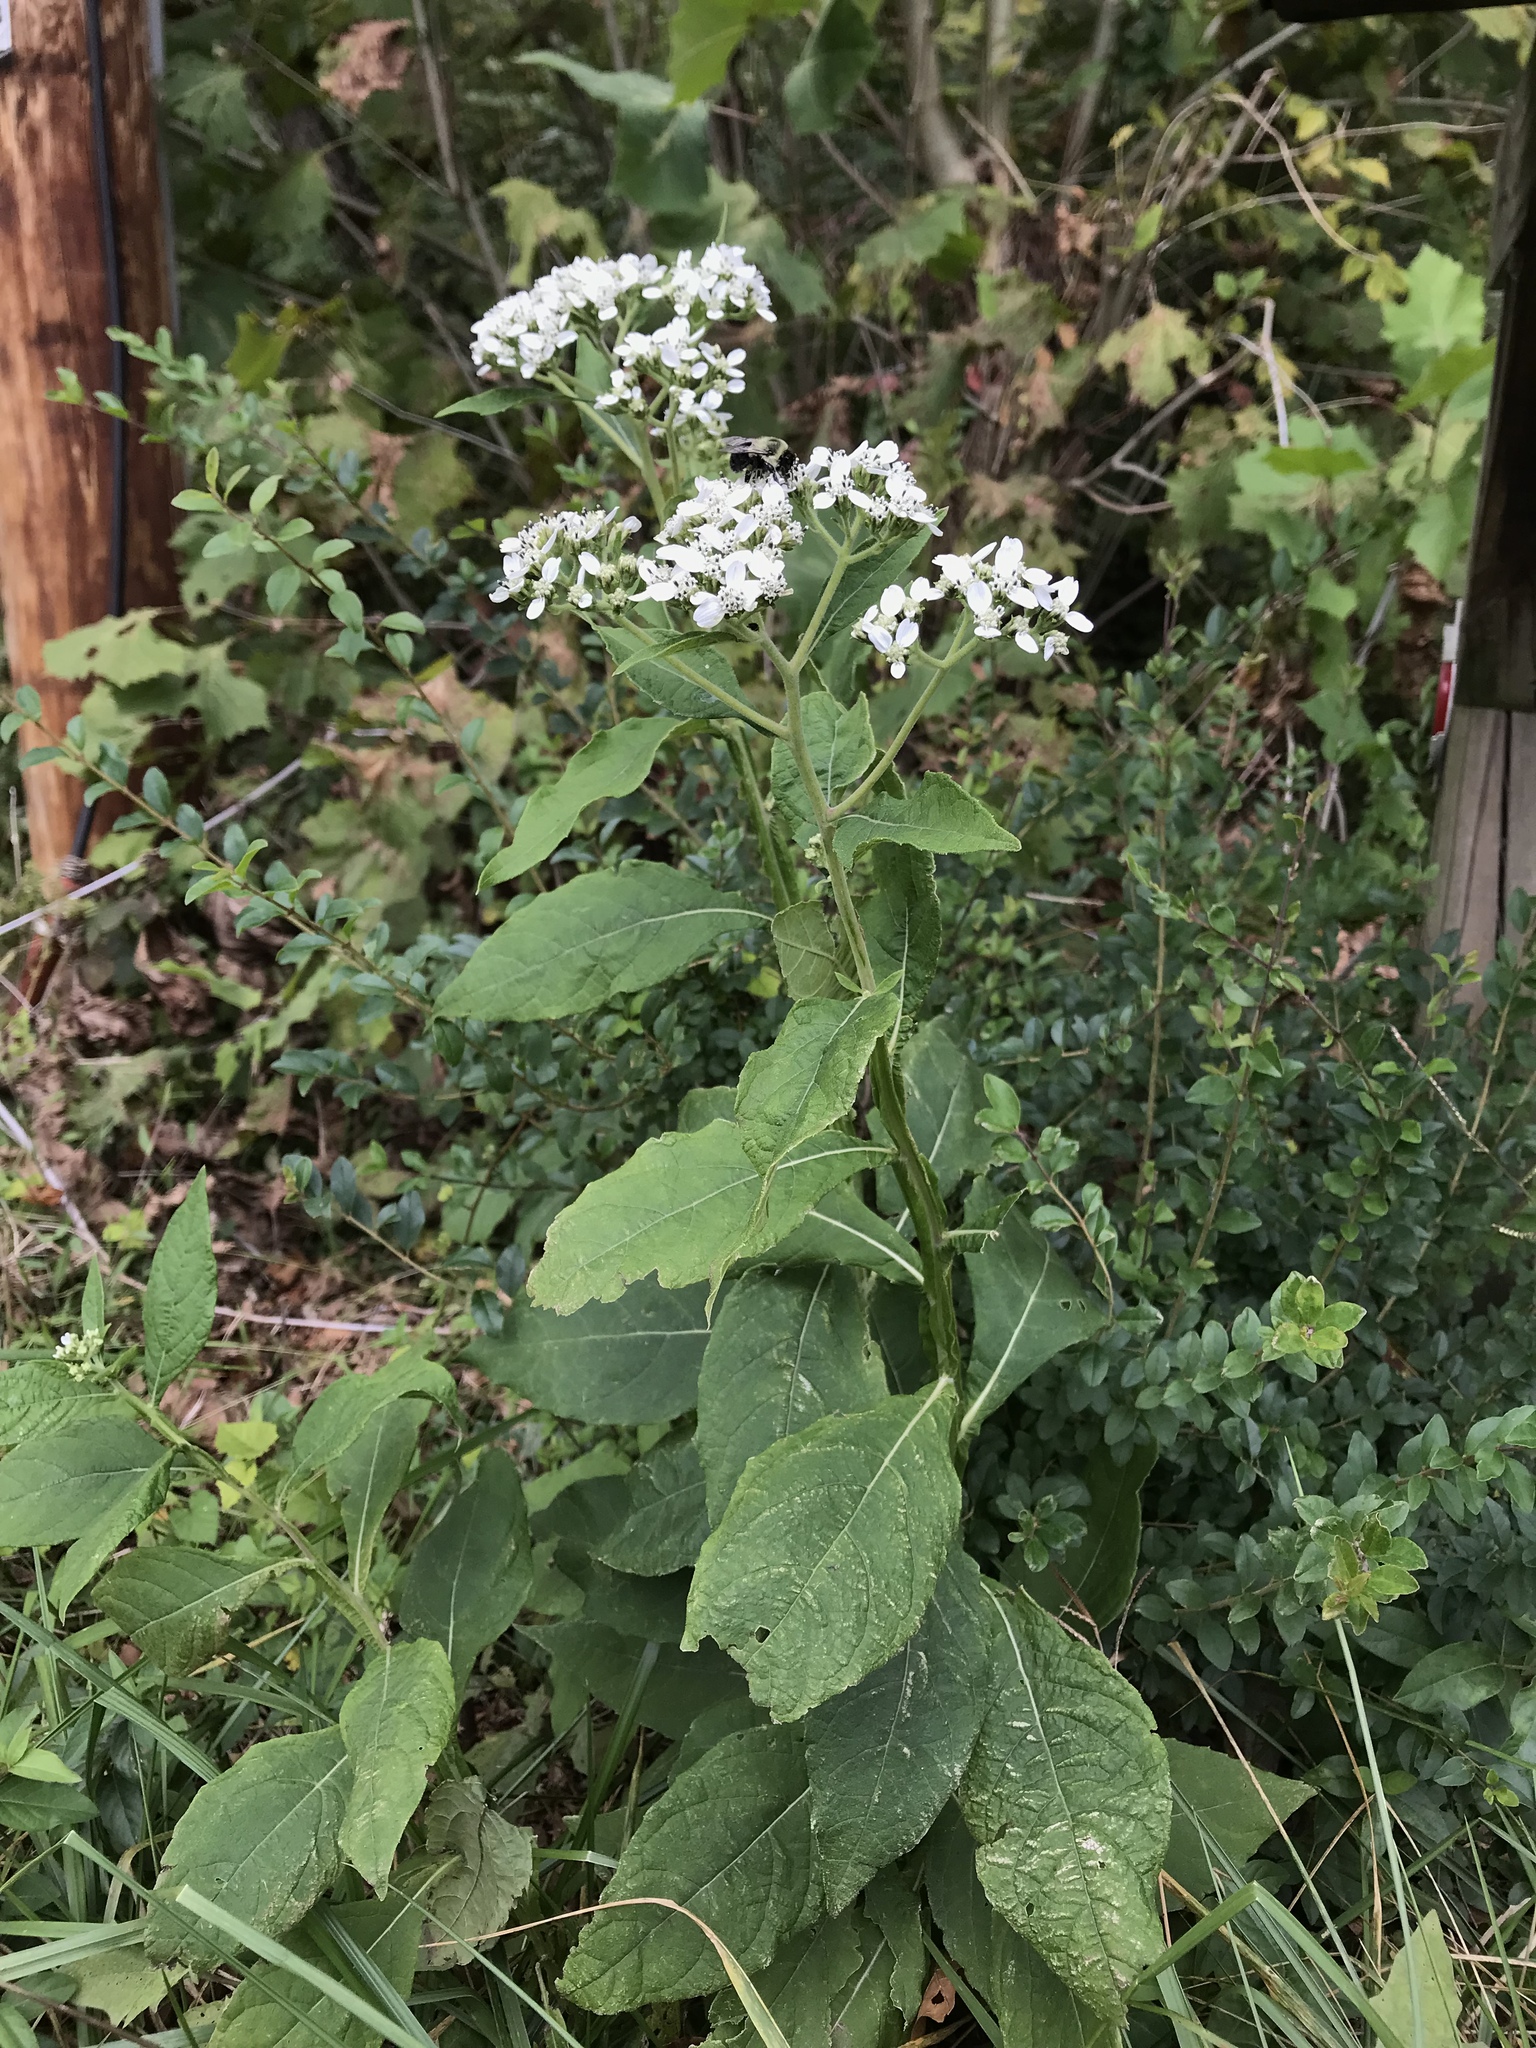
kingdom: Plantae
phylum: Tracheophyta
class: Magnoliopsida
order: Asterales
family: Asteraceae
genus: Verbesina
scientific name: Verbesina virginica
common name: Frostweed
